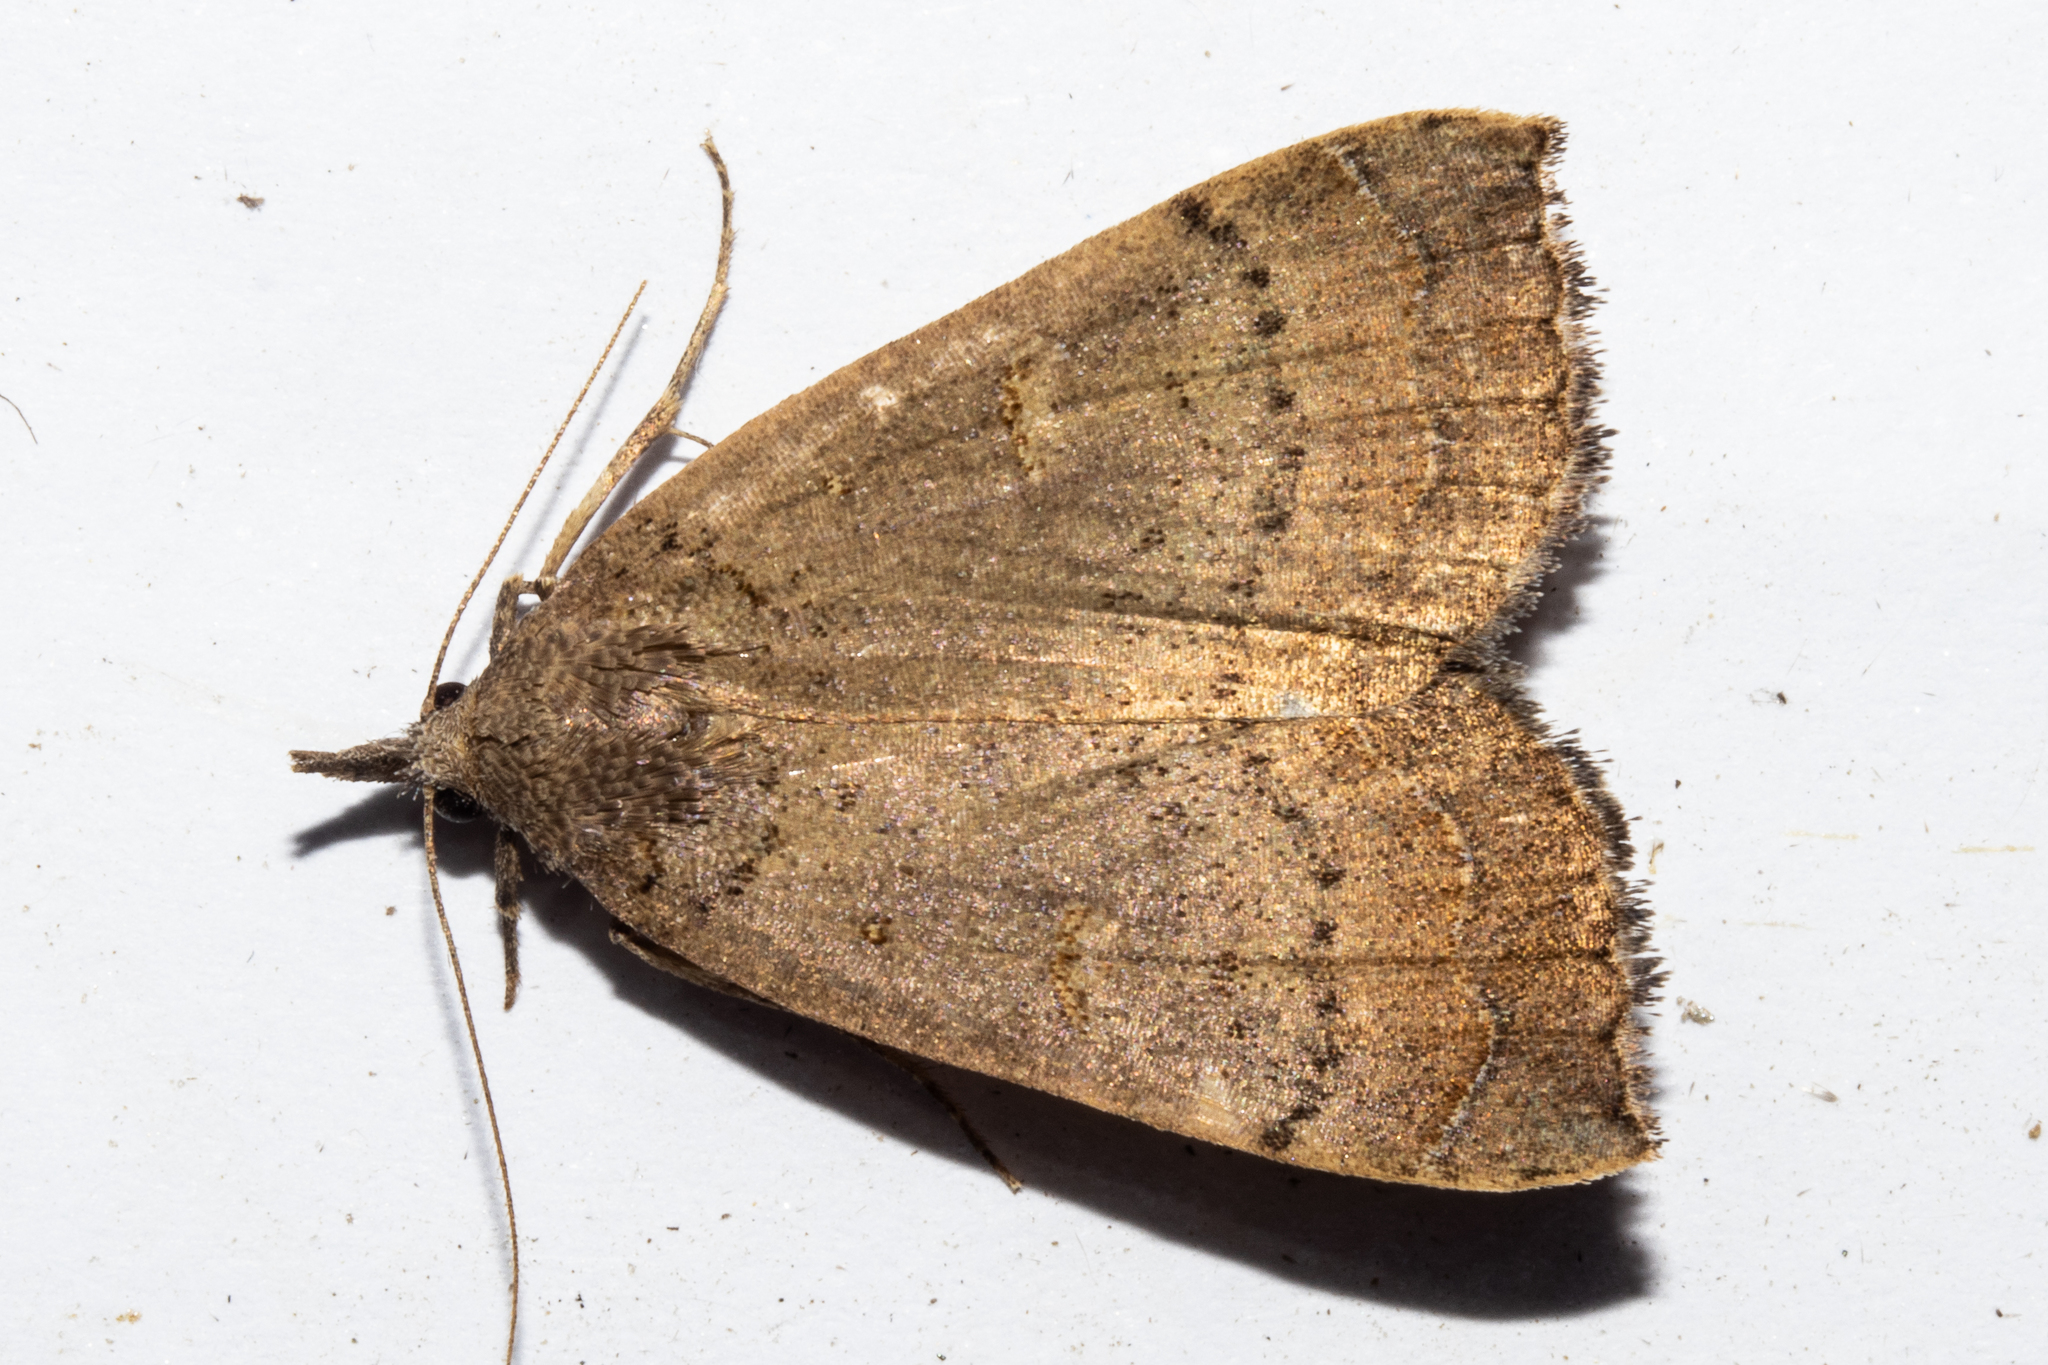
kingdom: Animalia
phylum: Arthropoda
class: Insecta
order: Lepidoptera
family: Erebidae
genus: Rhapsa
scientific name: Rhapsa scotosialis
